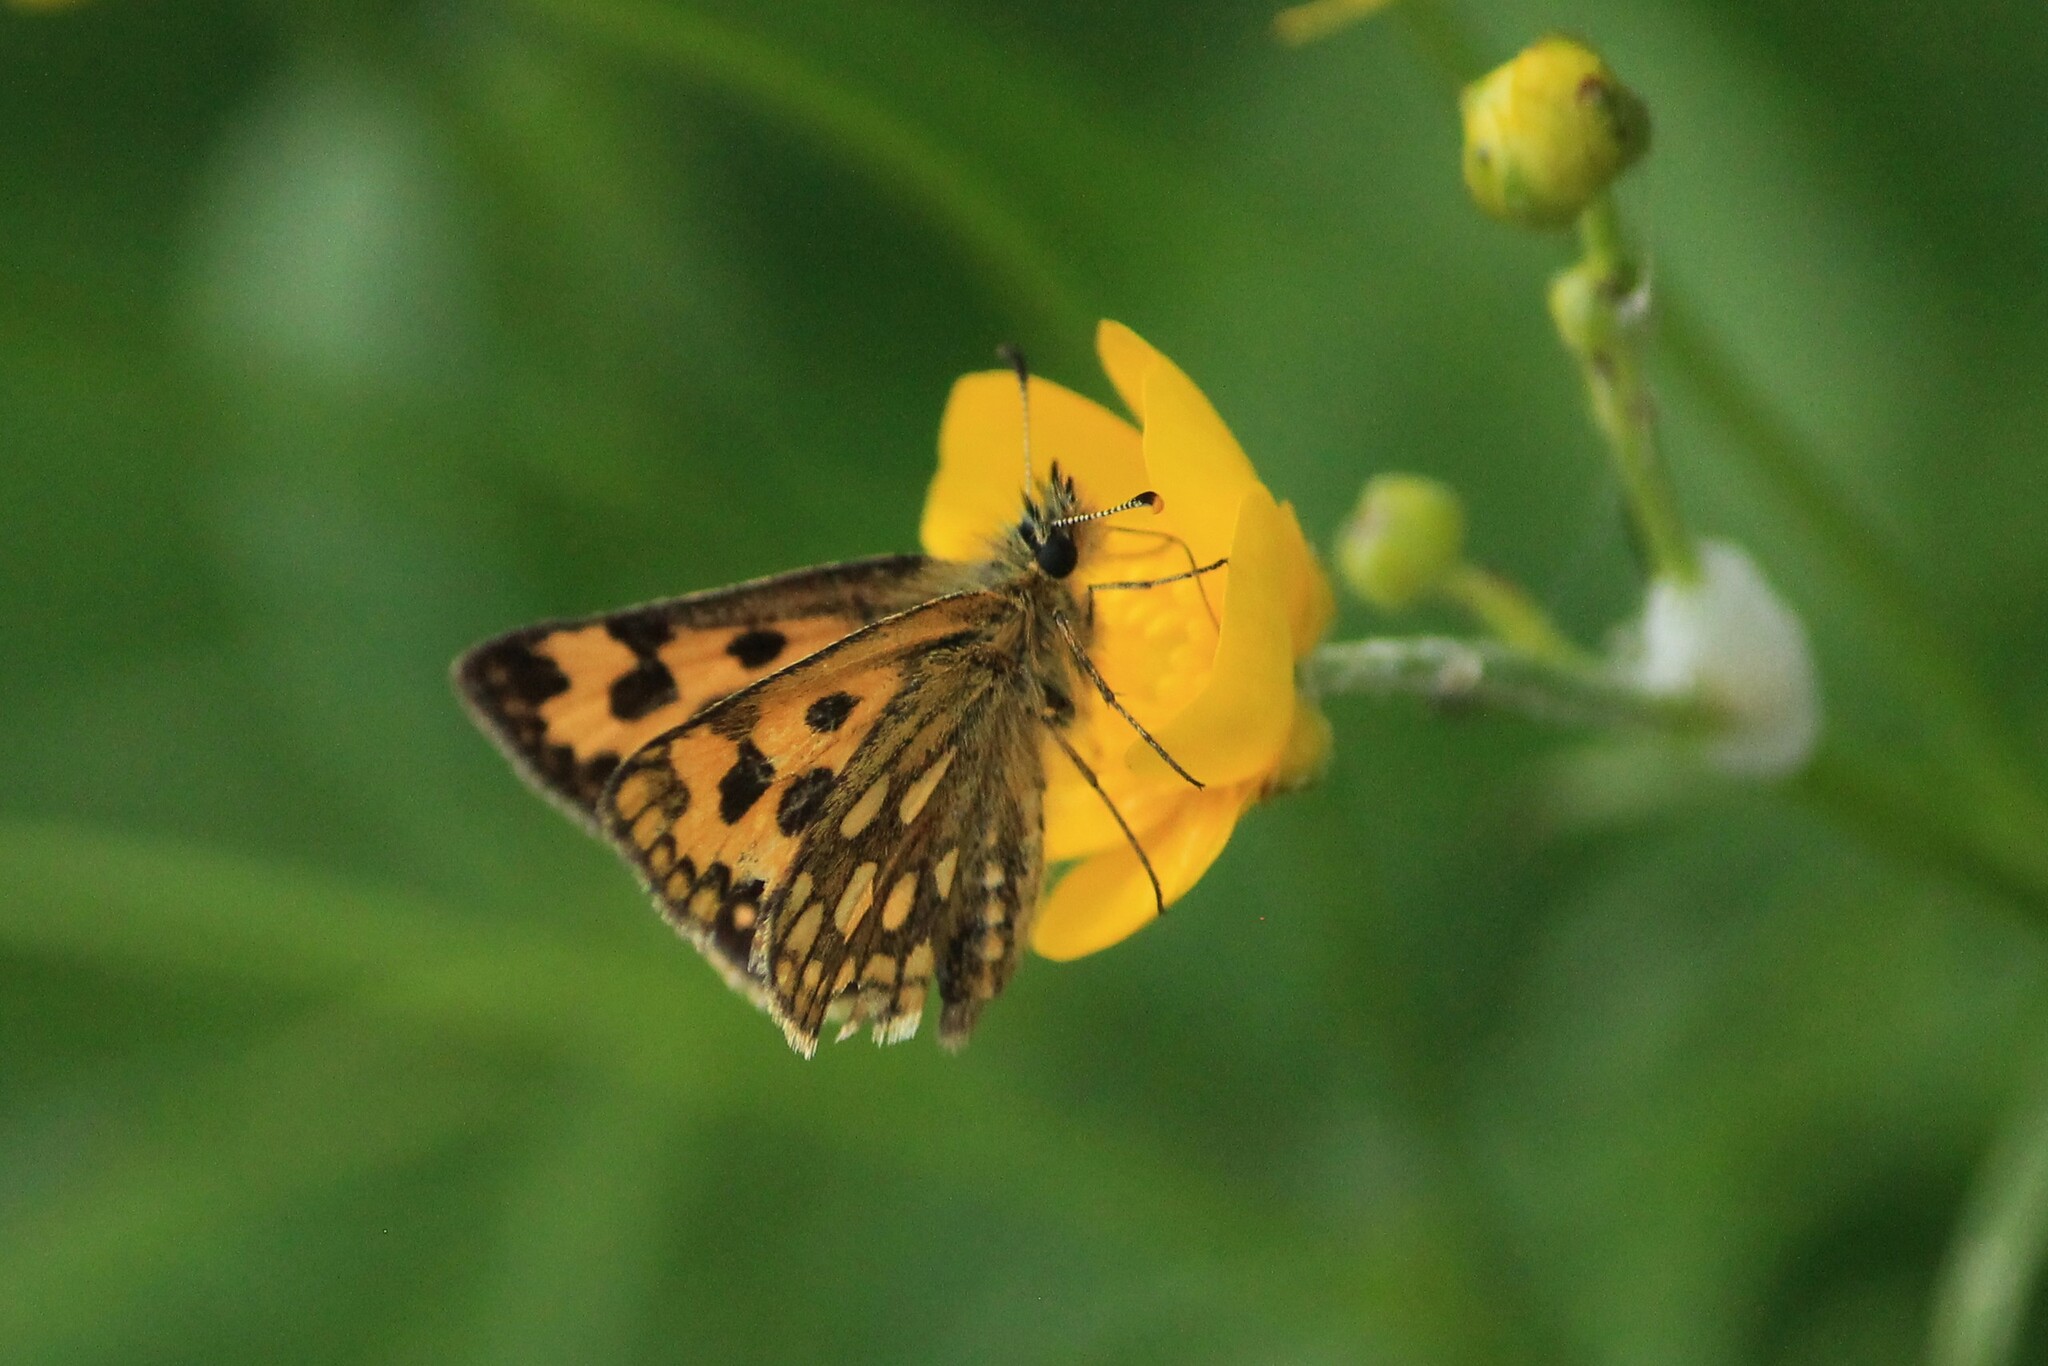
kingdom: Animalia
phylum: Arthropoda
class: Insecta
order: Lepidoptera
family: Hesperiidae
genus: Carterocephalus
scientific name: Carterocephalus silvicola
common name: Northern chequered skipper
